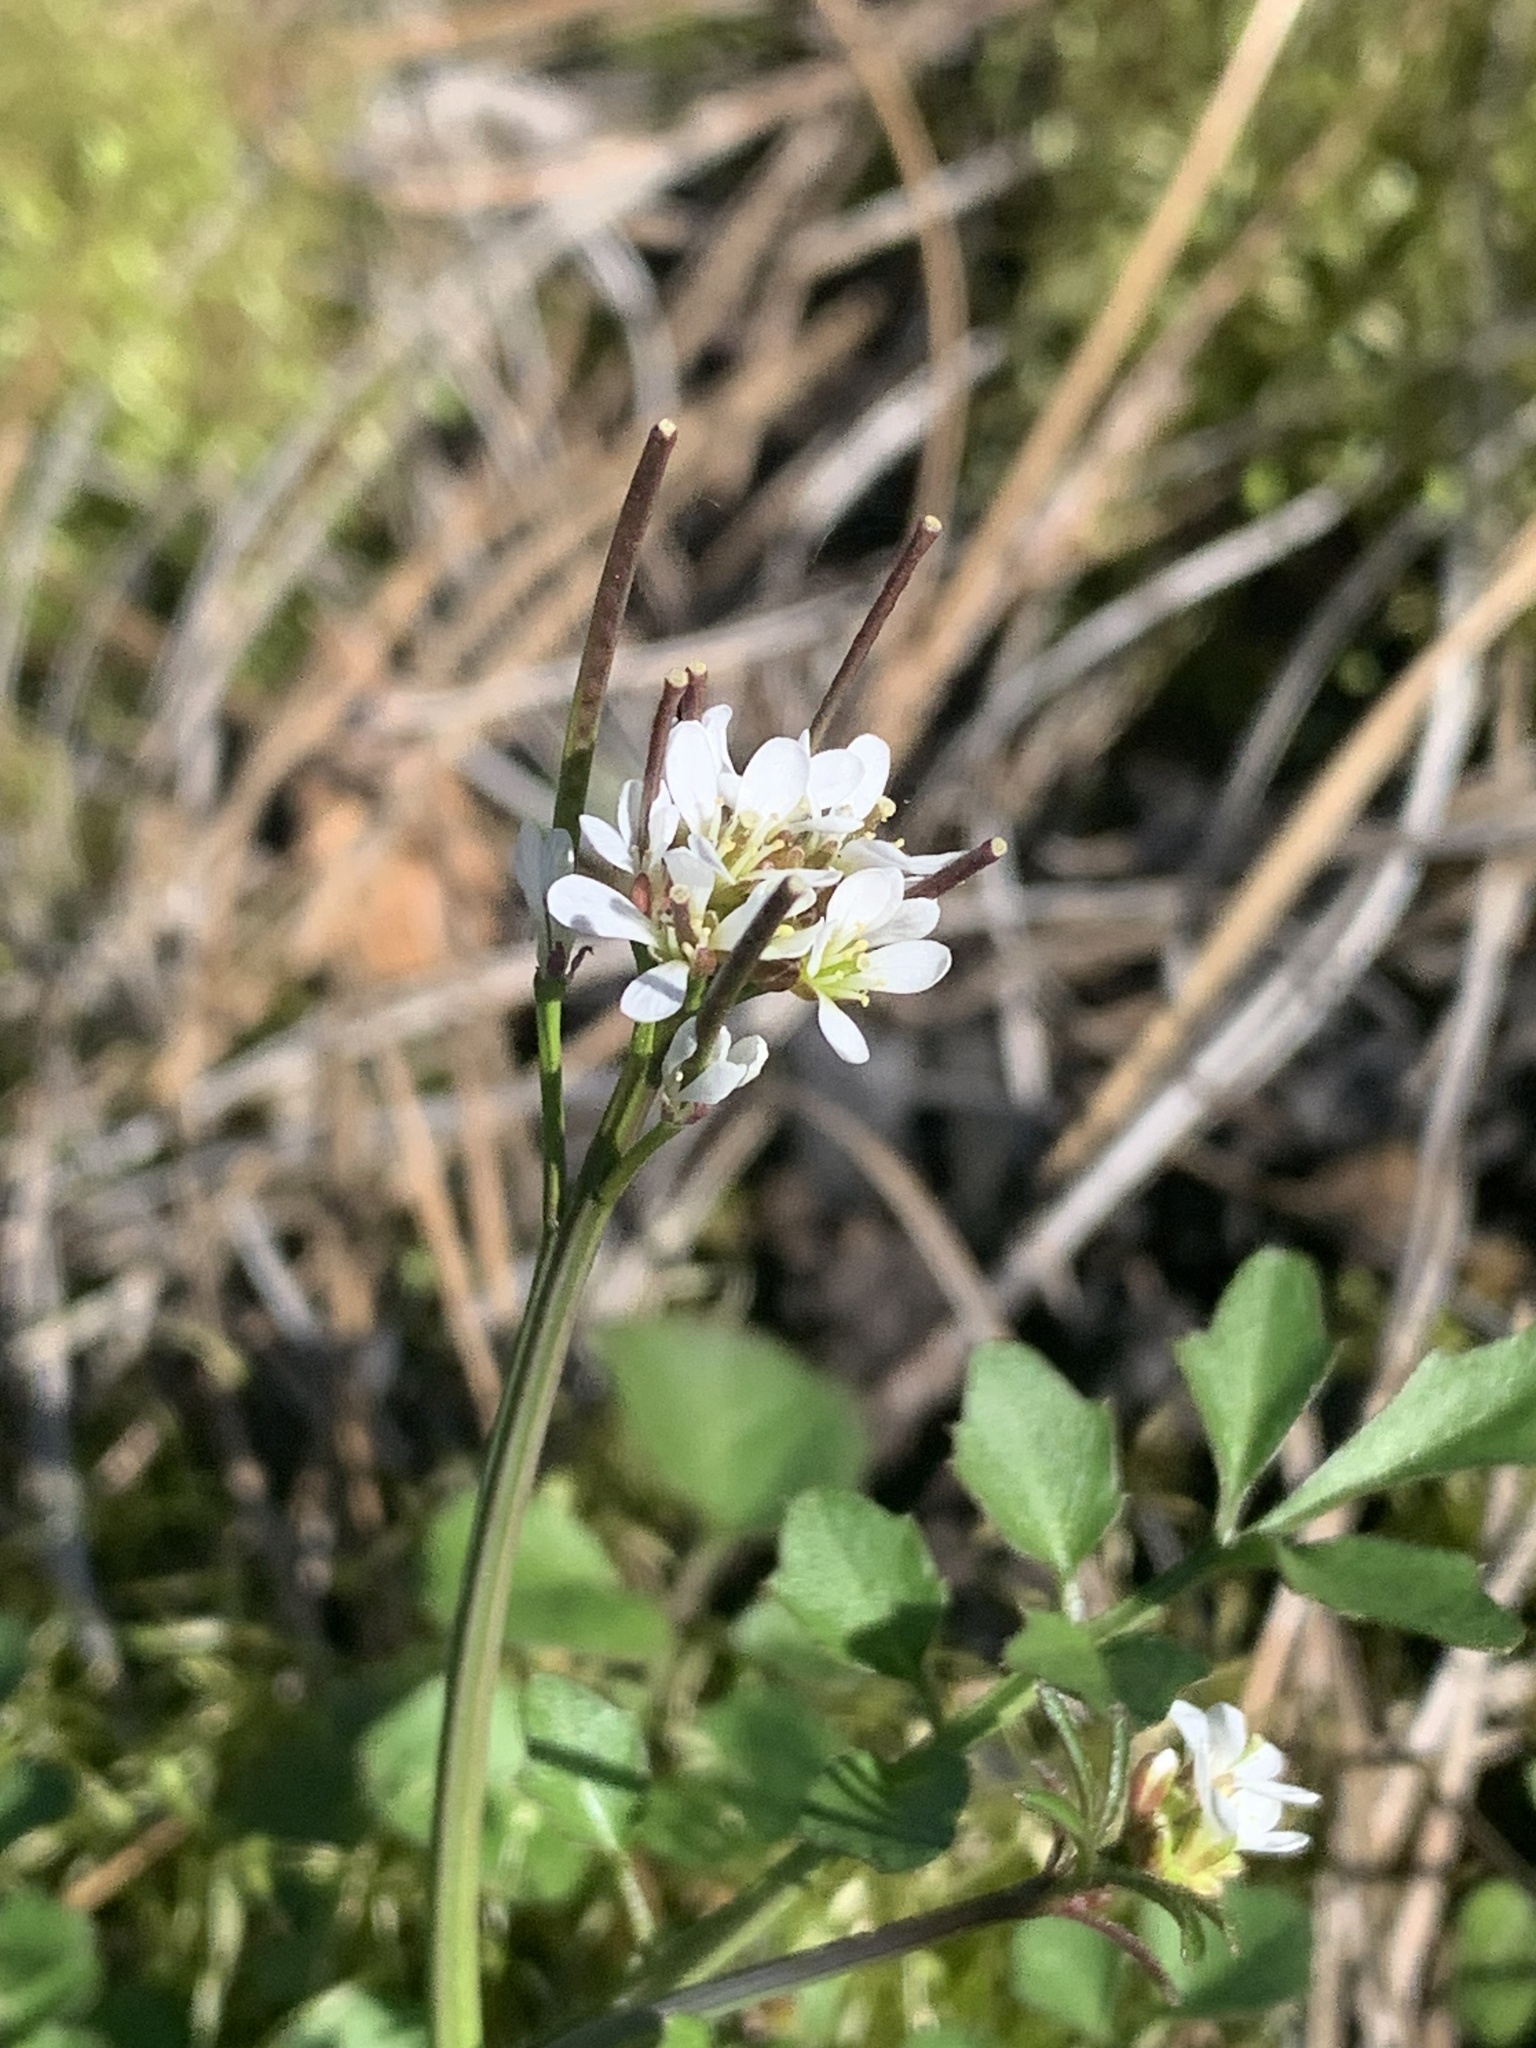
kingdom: Plantae
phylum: Tracheophyta
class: Magnoliopsida
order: Brassicales
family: Brassicaceae
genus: Cardamine
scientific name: Cardamine hirsuta
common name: Hairy bittercress
